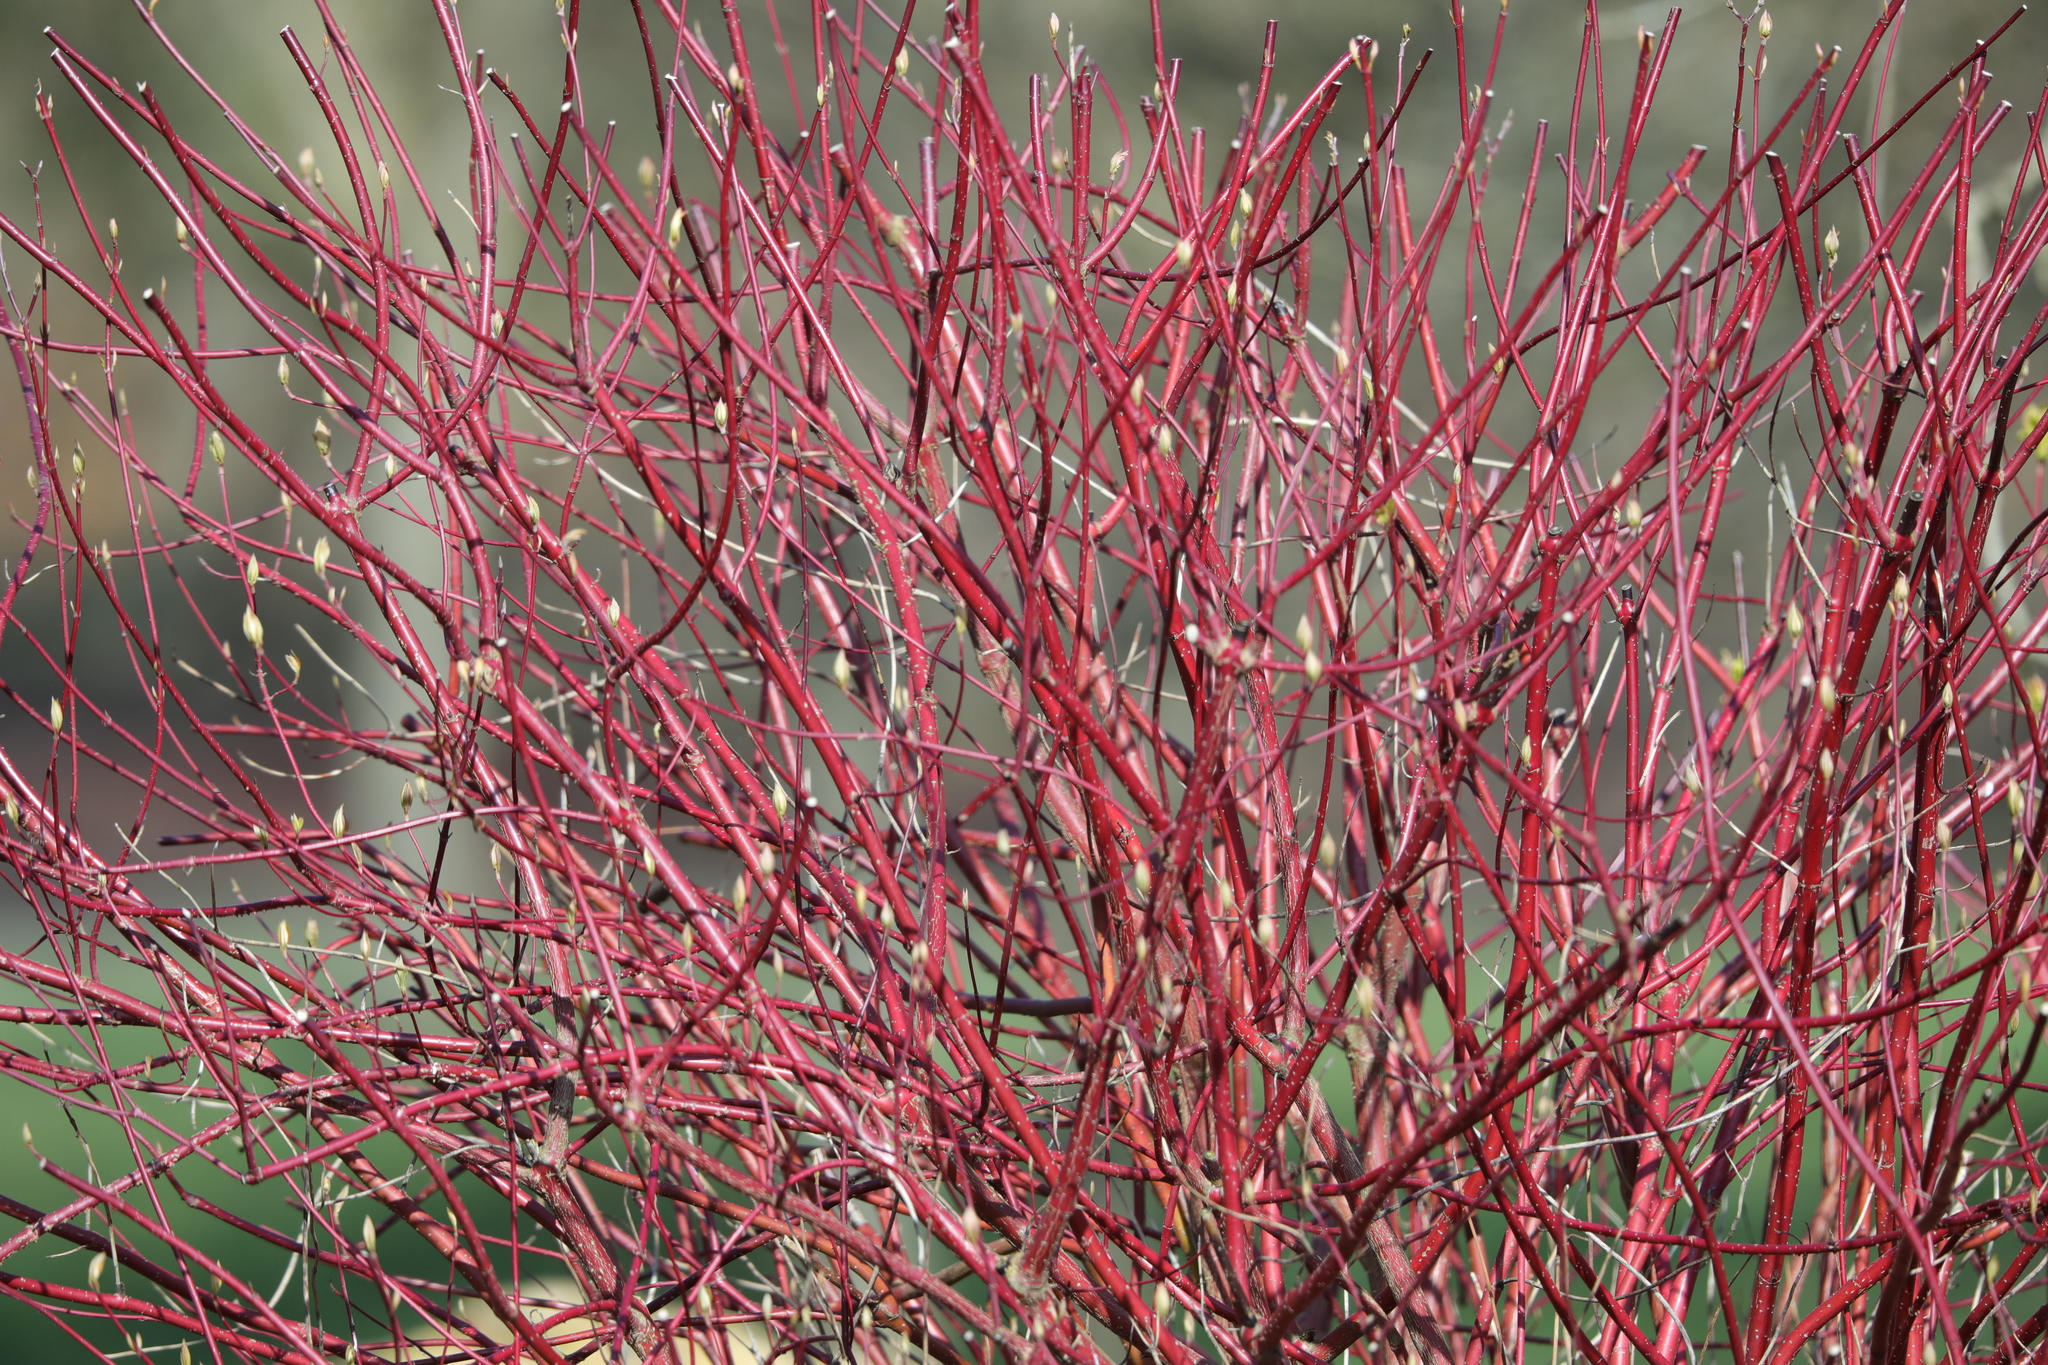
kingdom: Plantae
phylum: Tracheophyta
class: Magnoliopsida
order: Cornales
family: Cornaceae
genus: Cornus
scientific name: Cornus sanguinea
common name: Dogwood
